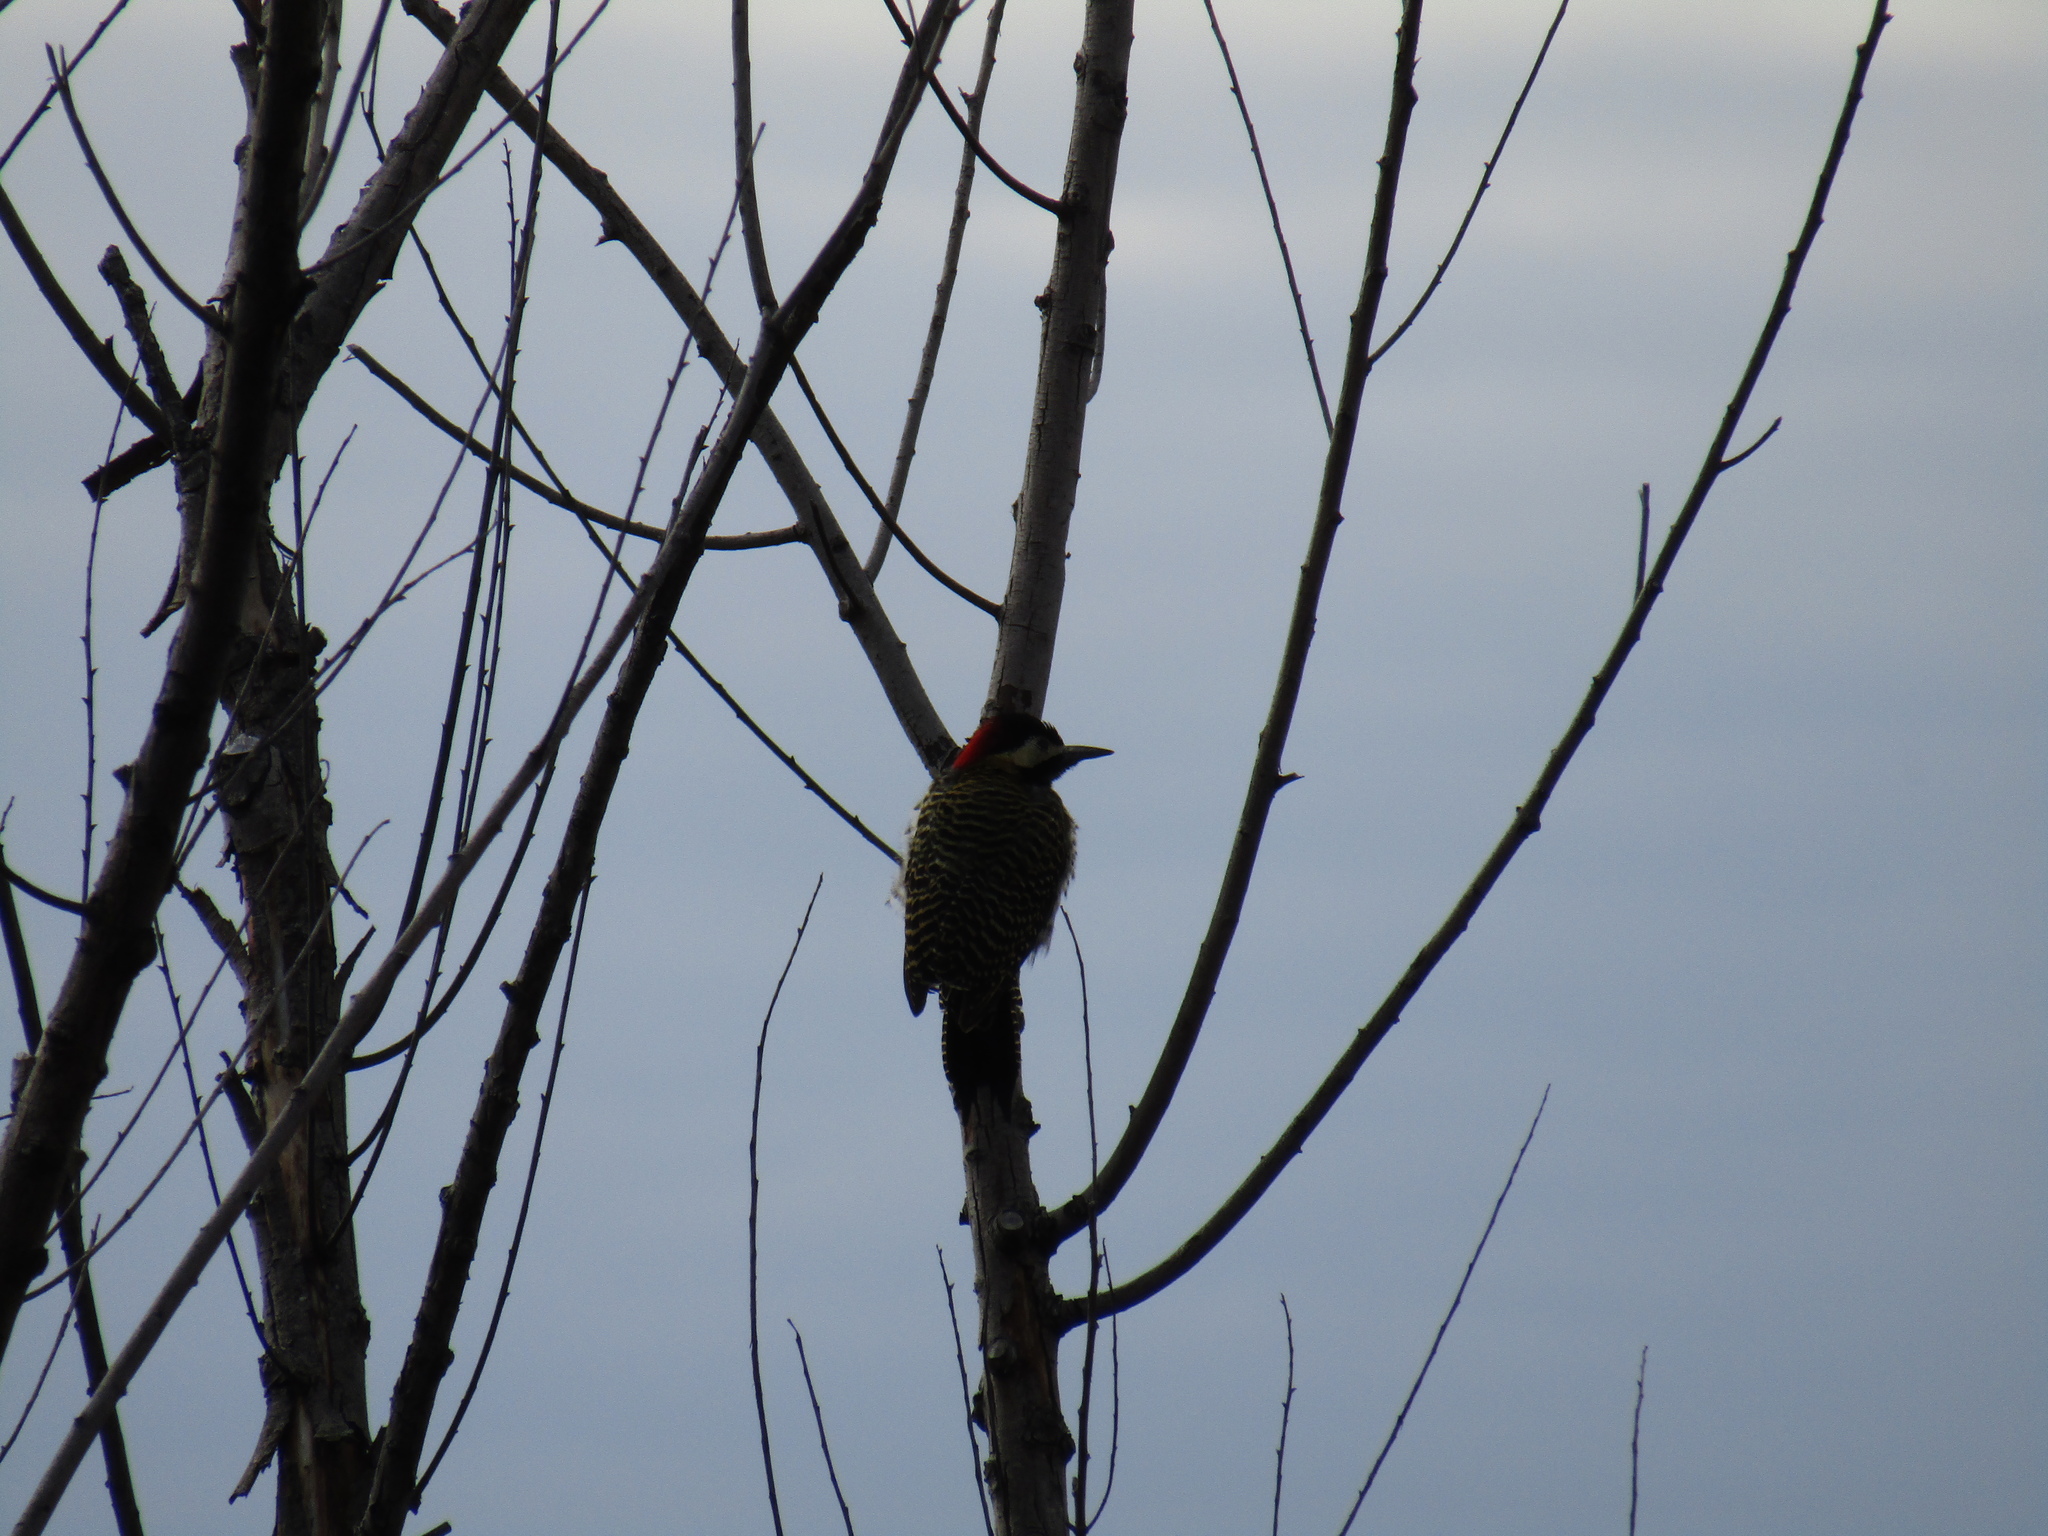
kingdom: Animalia
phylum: Chordata
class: Aves
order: Piciformes
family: Picidae
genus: Colaptes
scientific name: Colaptes melanochloros
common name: Green-barred woodpecker
